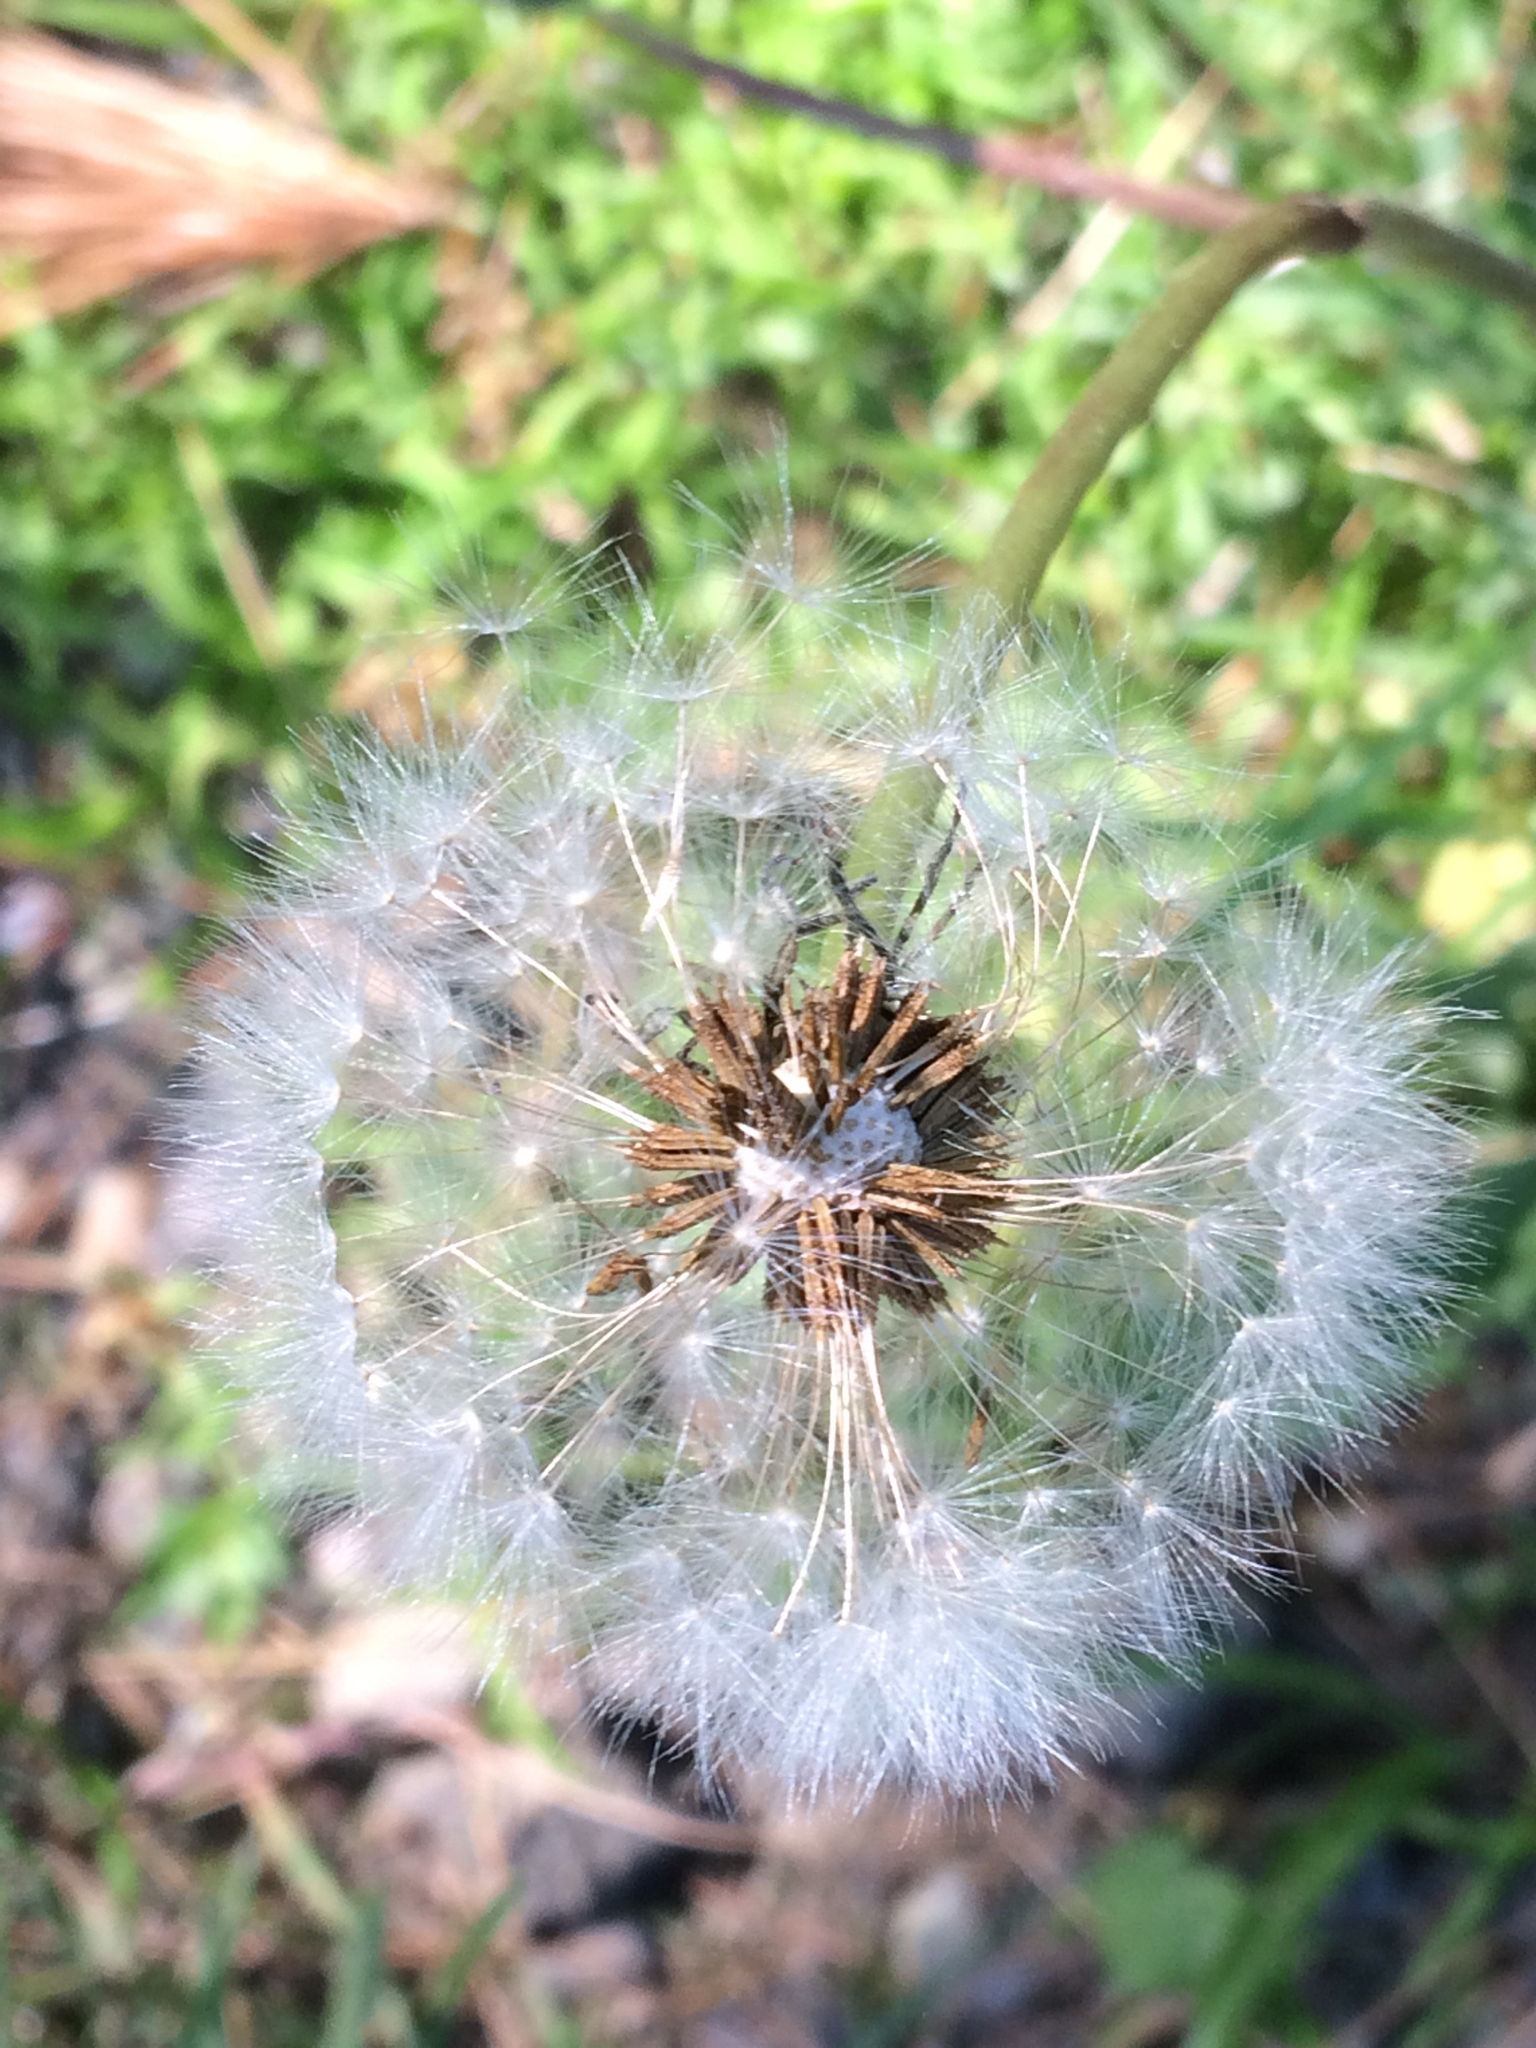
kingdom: Plantae
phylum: Tracheophyta
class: Magnoliopsida
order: Asterales
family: Asteraceae
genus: Taraxacum
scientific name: Taraxacum officinale
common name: Common dandelion
